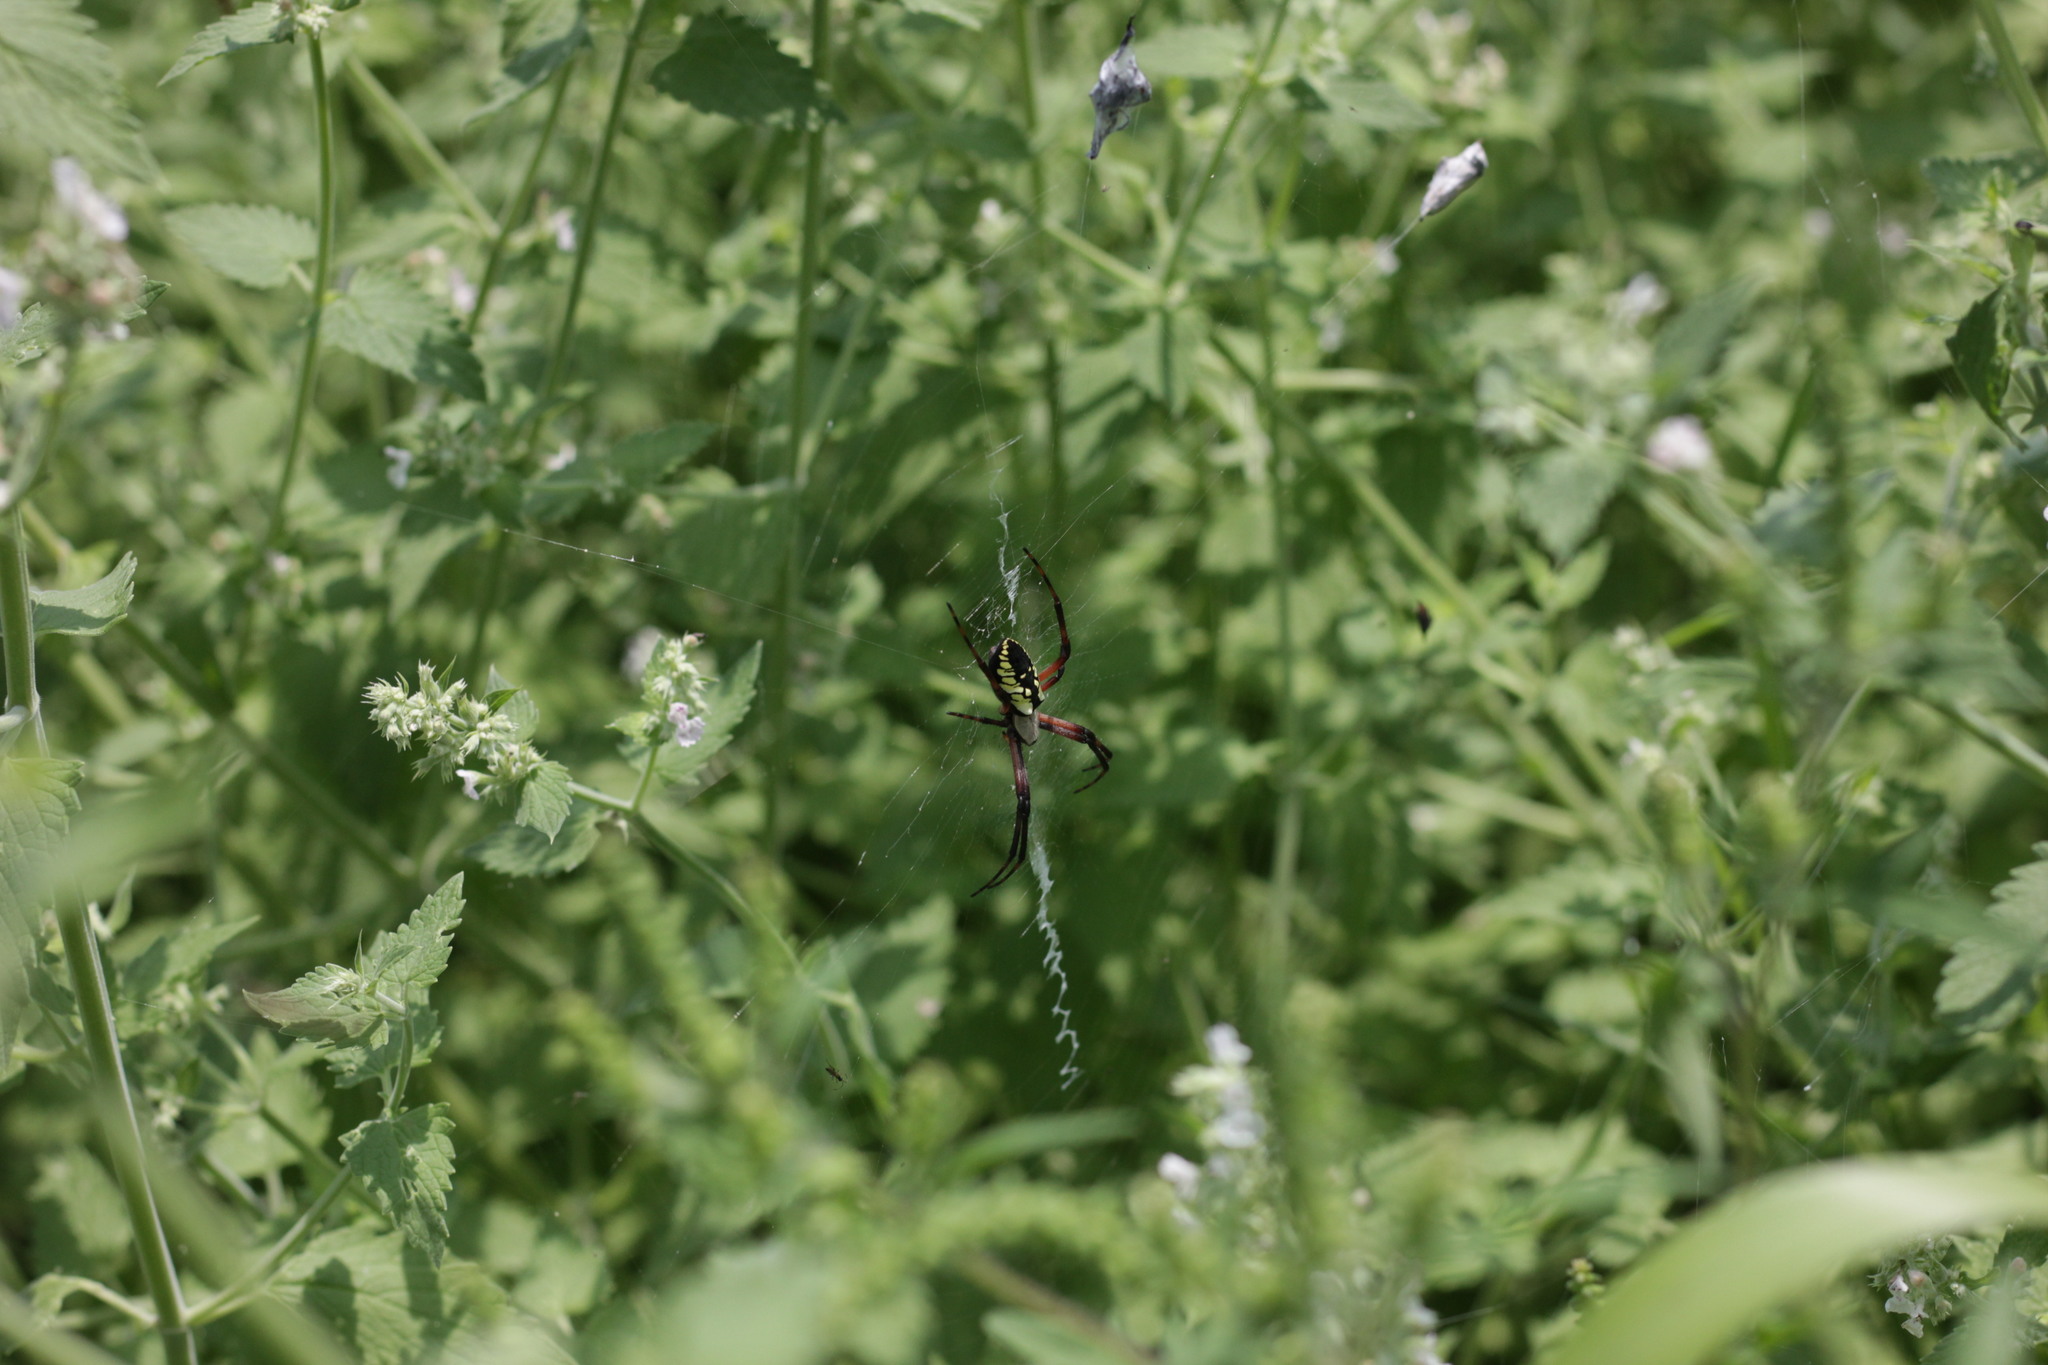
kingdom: Animalia
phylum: Arthropoda
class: Arachnida
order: Araneae
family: Araneidae
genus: Argiope
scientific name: Argiope aurantia
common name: Orb weavers
